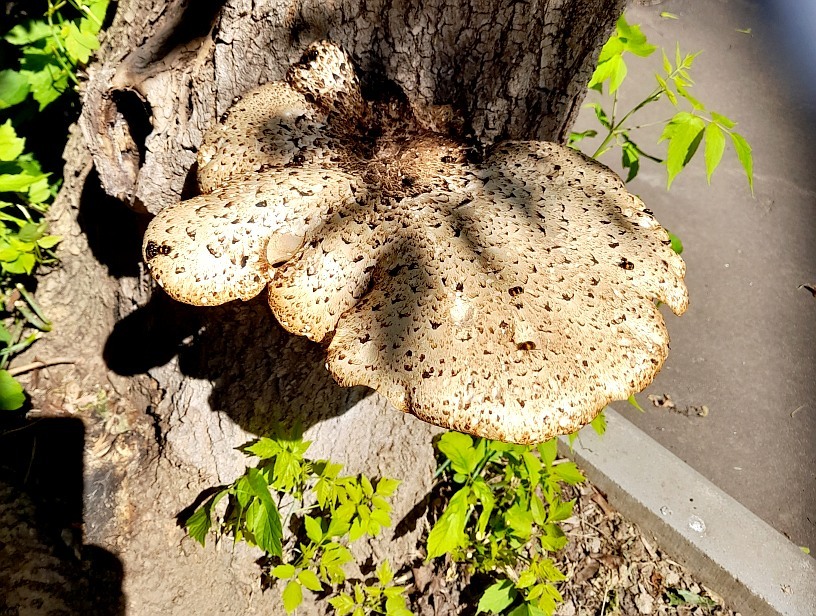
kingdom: Fungi
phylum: Basidiomycota
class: Agaricomycetes
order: Polyporales
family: Polyporaceae
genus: Cerioporus
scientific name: Cerioporus squamosus
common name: Dryad's saddle
